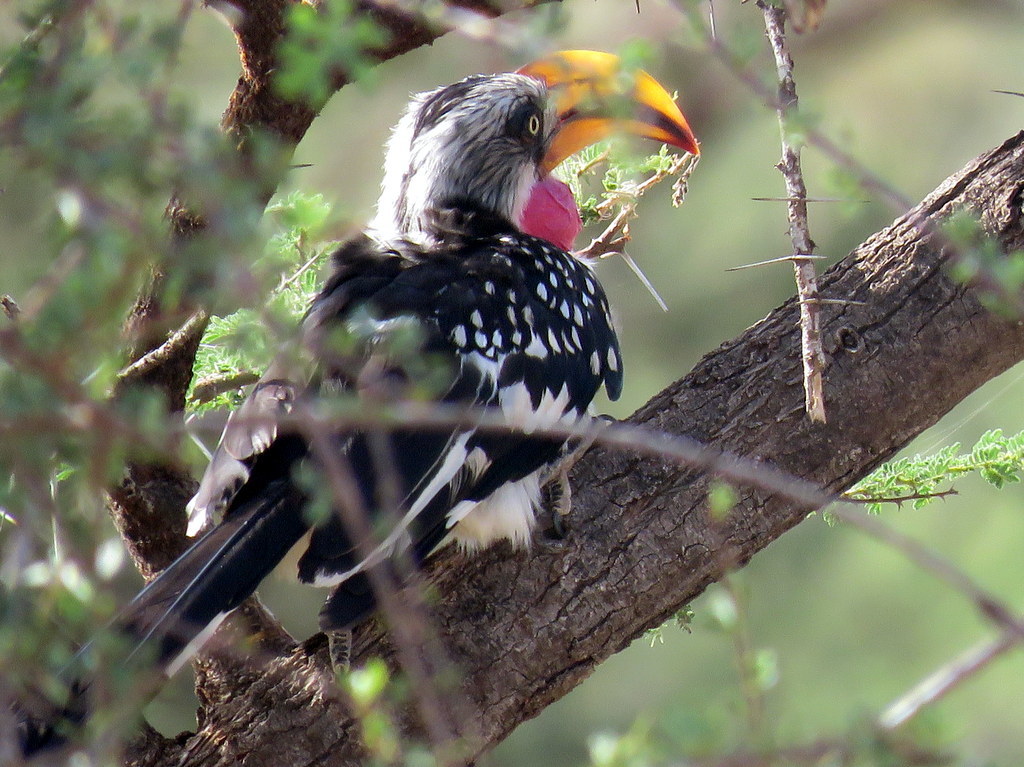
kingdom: Animalia
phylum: Chordata
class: Aves
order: Bucerotiformes
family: Bucerotidae
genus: Tockus
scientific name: Tockus flavirostris
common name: Eastern yellow-billed hornbill
